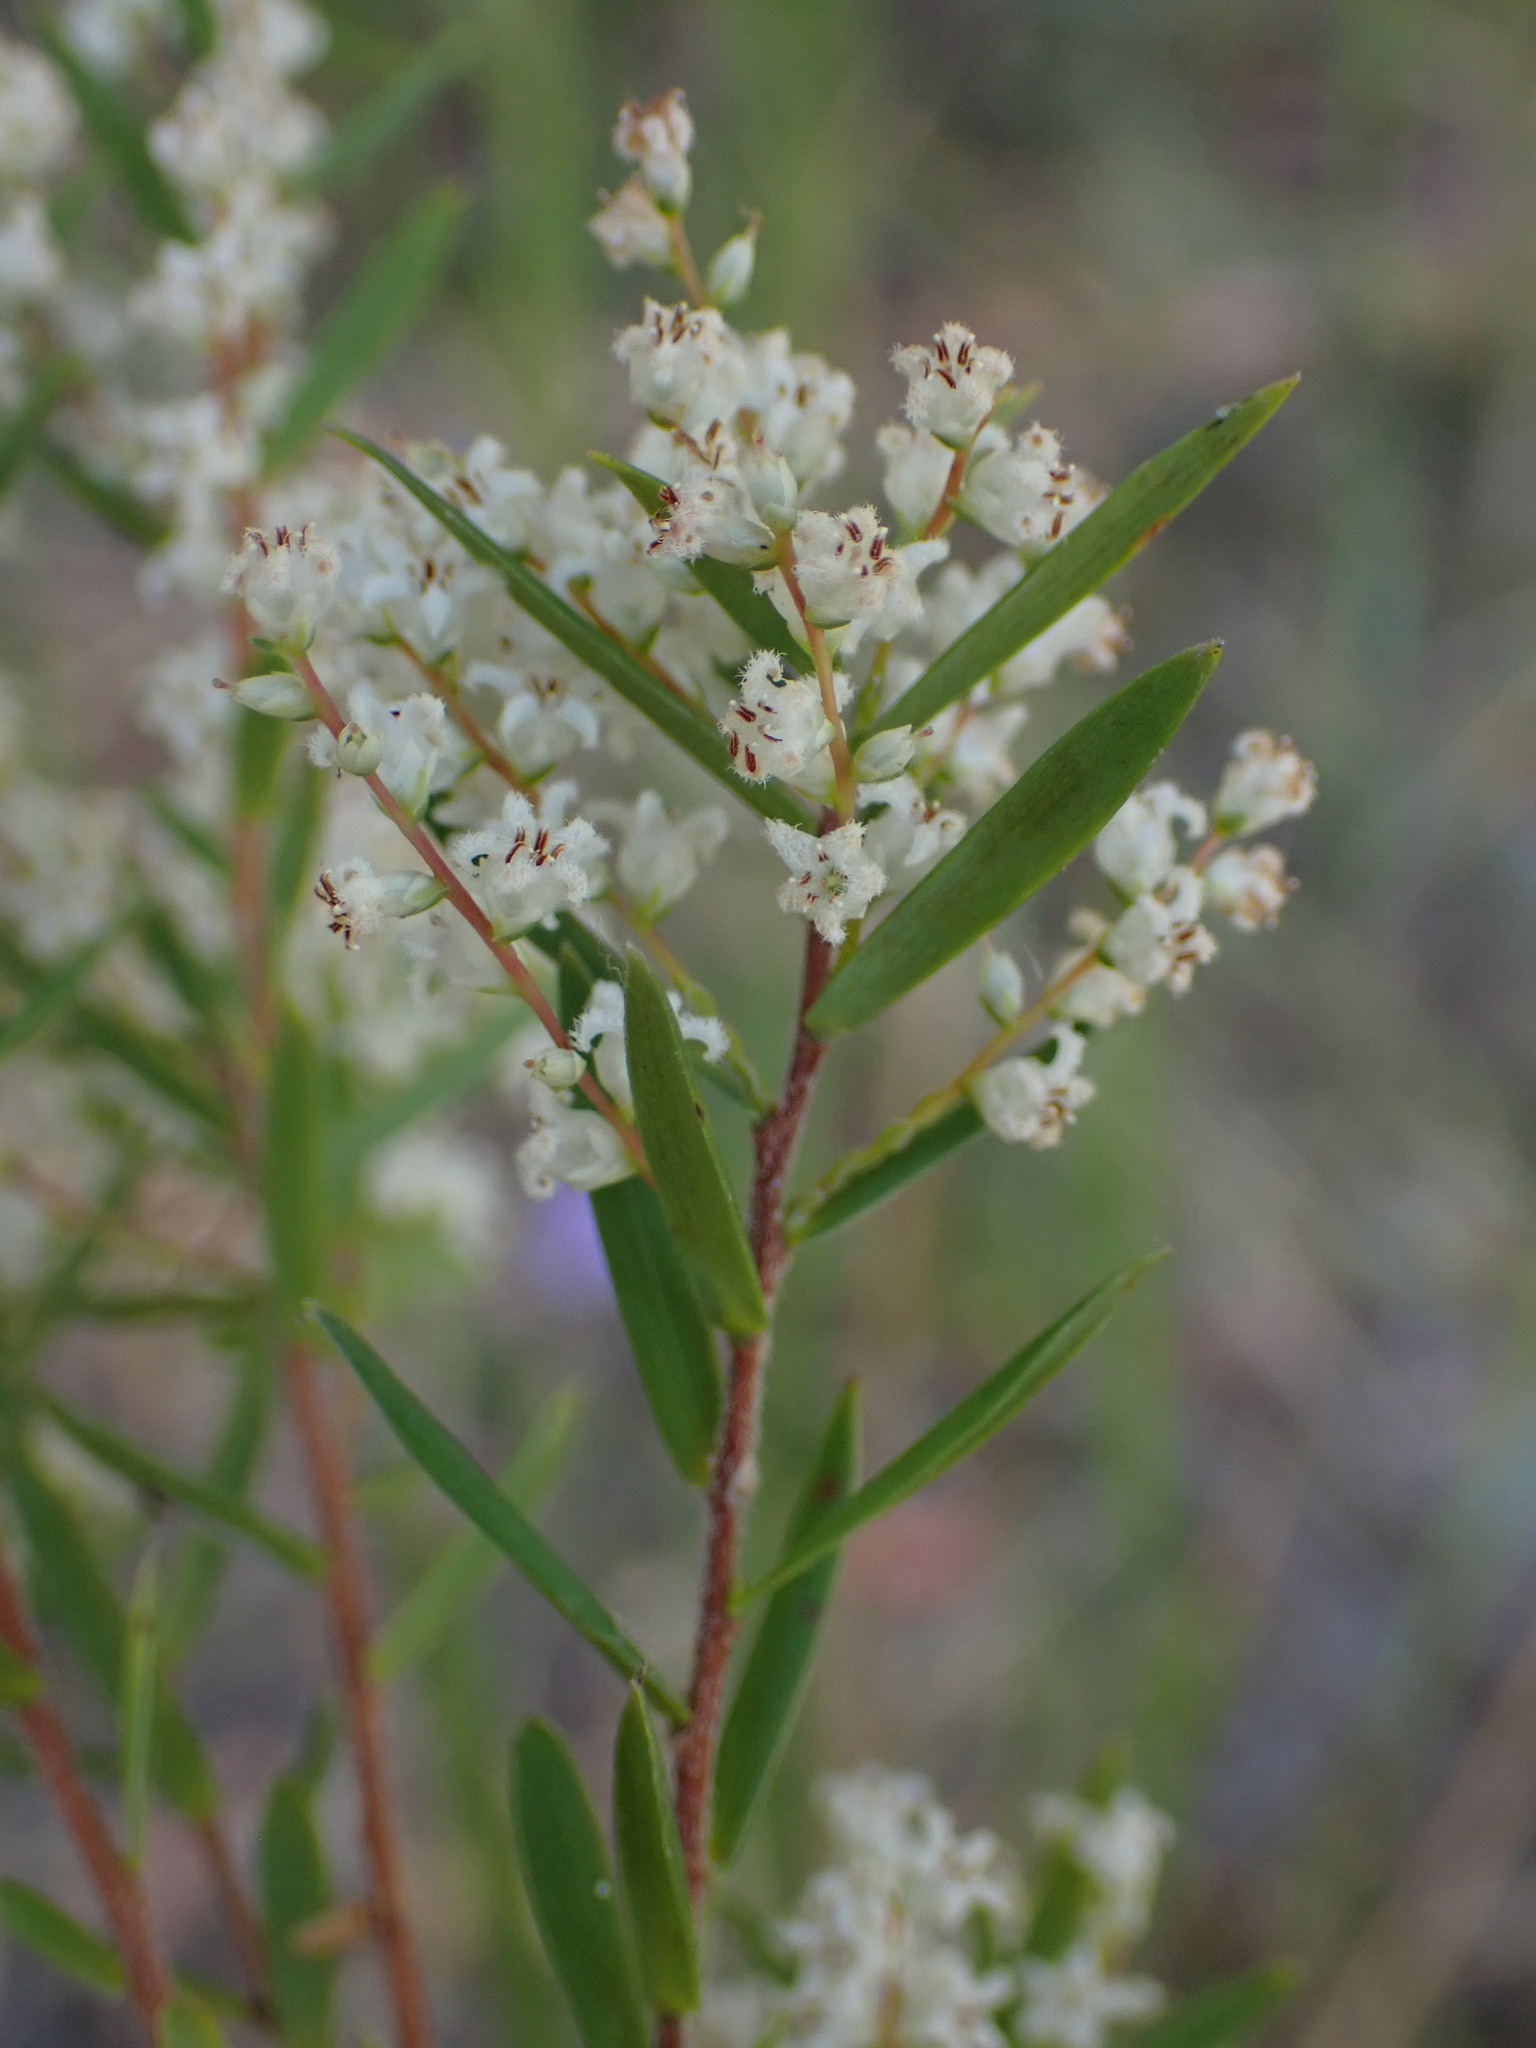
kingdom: Plantae
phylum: Tracheophyta
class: Magnoliopsida
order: Ericales
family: Ericaceae
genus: Leucopogon
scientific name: Leucopogon lanceolatus
